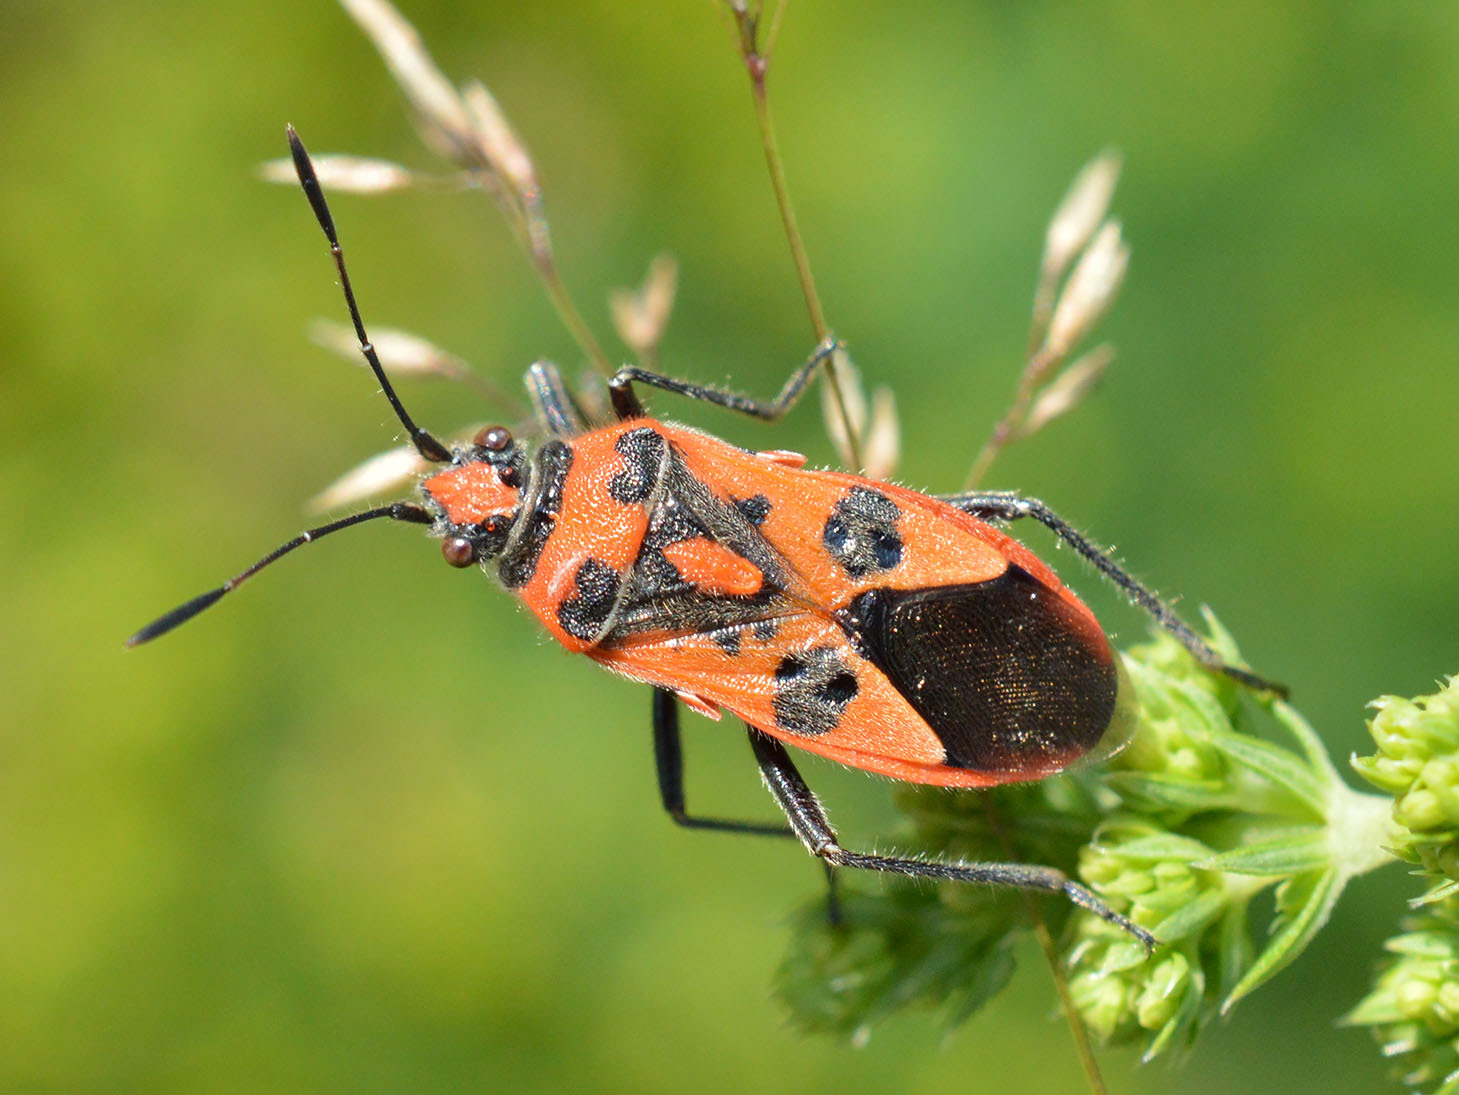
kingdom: Animalia
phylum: Arthropoda
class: Insecta
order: Hemiptera
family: Rhopalidae
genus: Corizus
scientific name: Corizus hyoscyami
